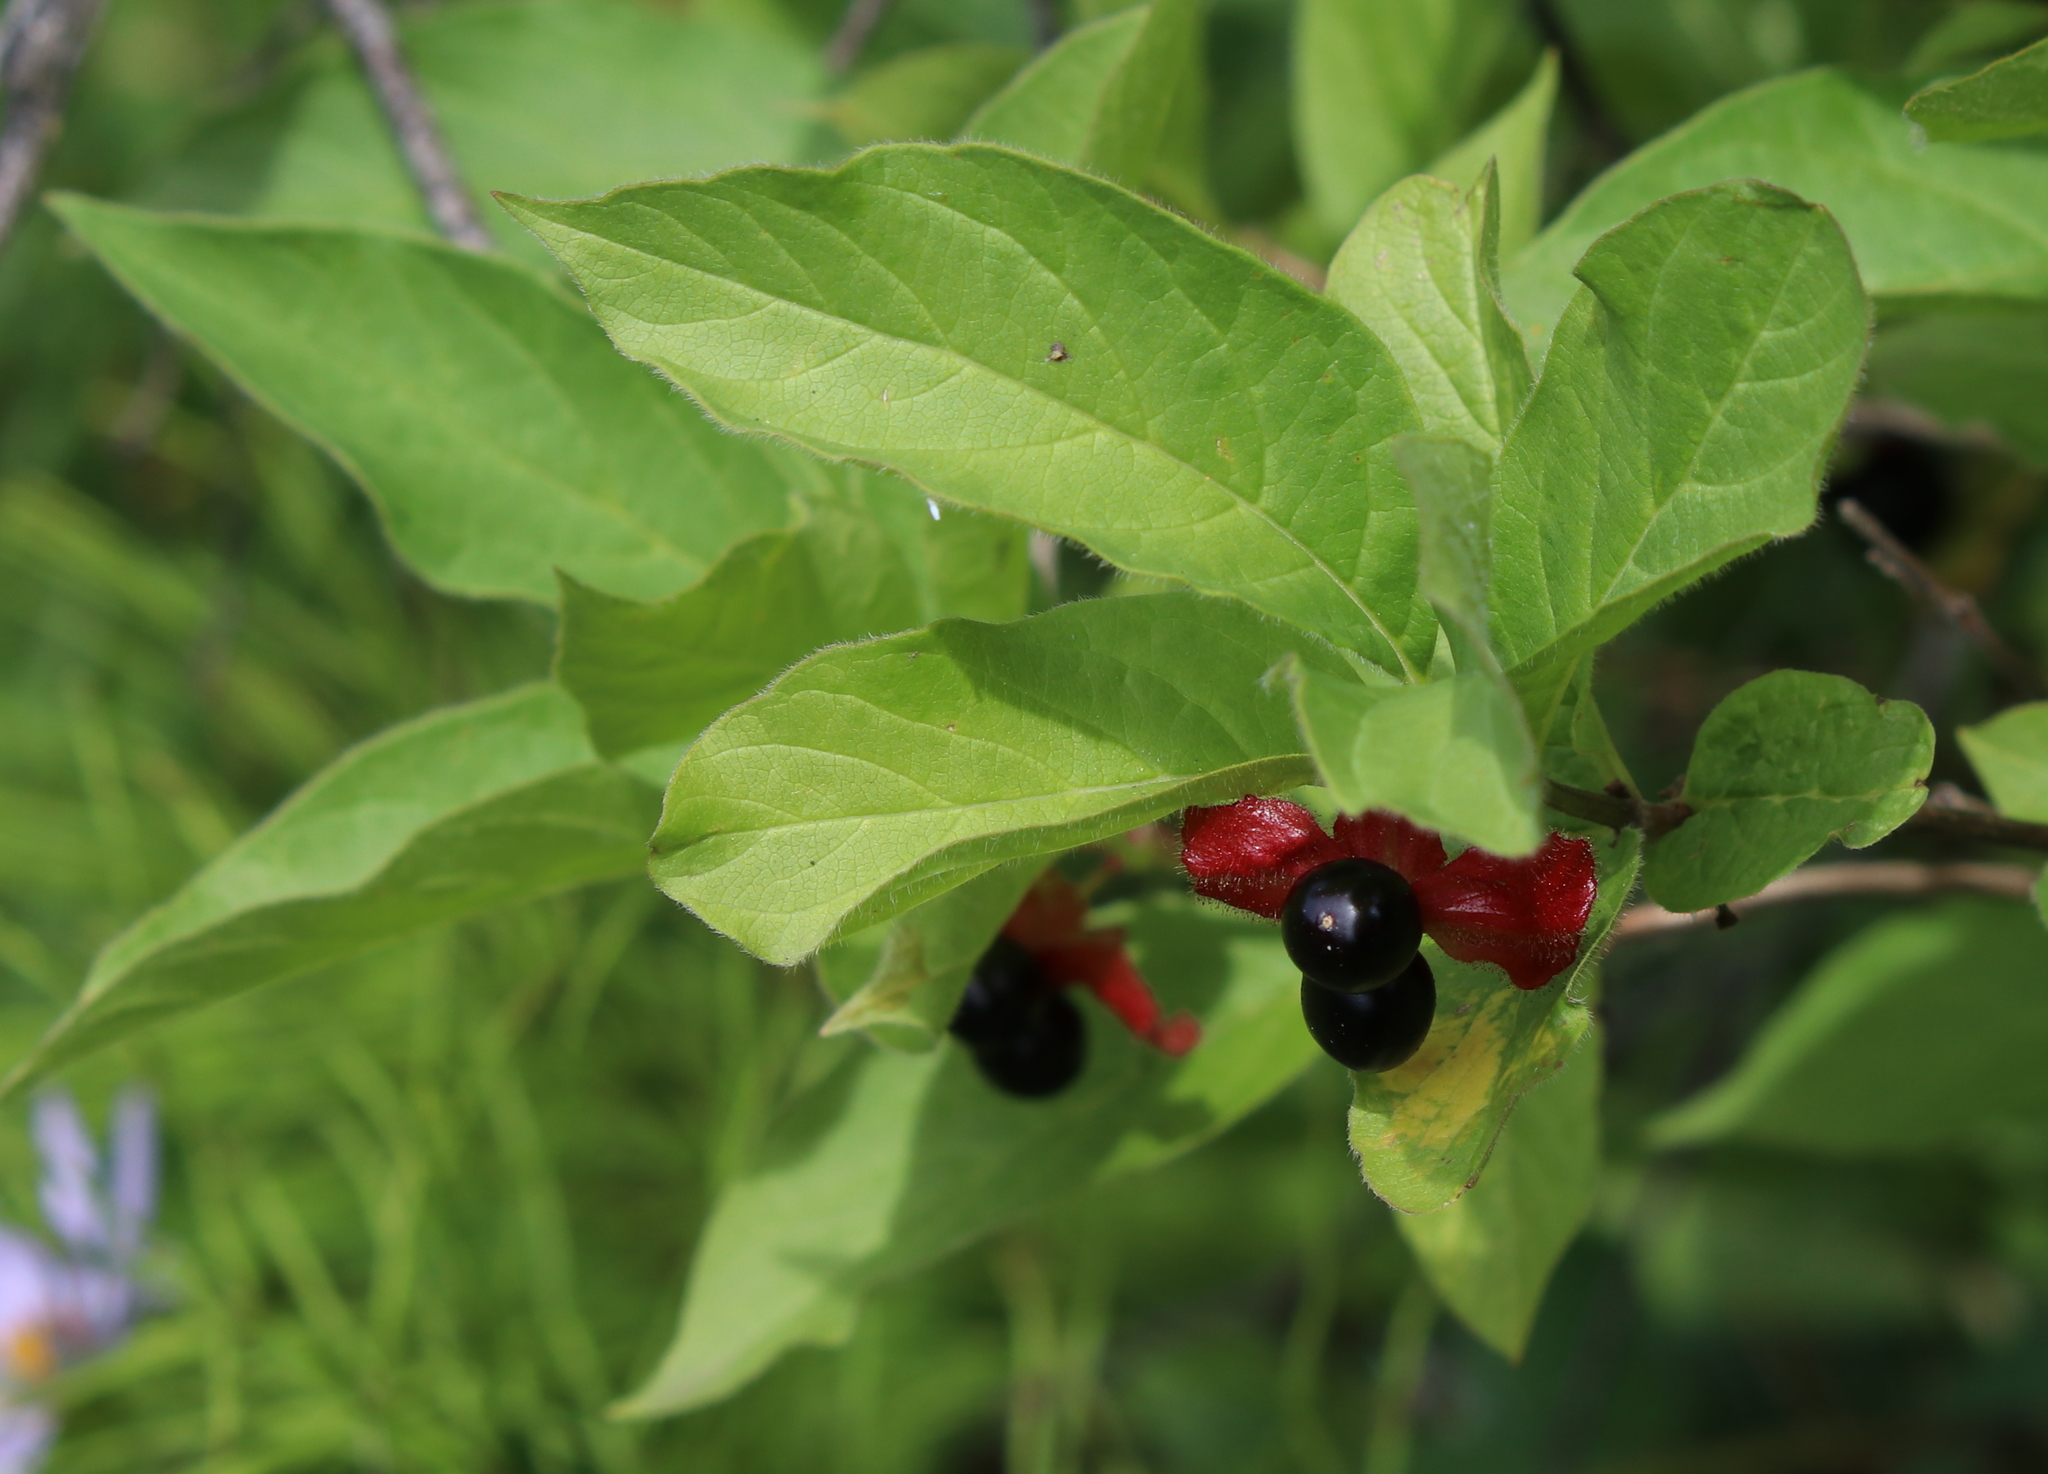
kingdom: Plantae
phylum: Tracheophyta
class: Magnoliopsida
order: Dipsacales
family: Caprifoliaceae
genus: Lonicera
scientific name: Lonicera involucrata
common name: Californian honeysuckle
